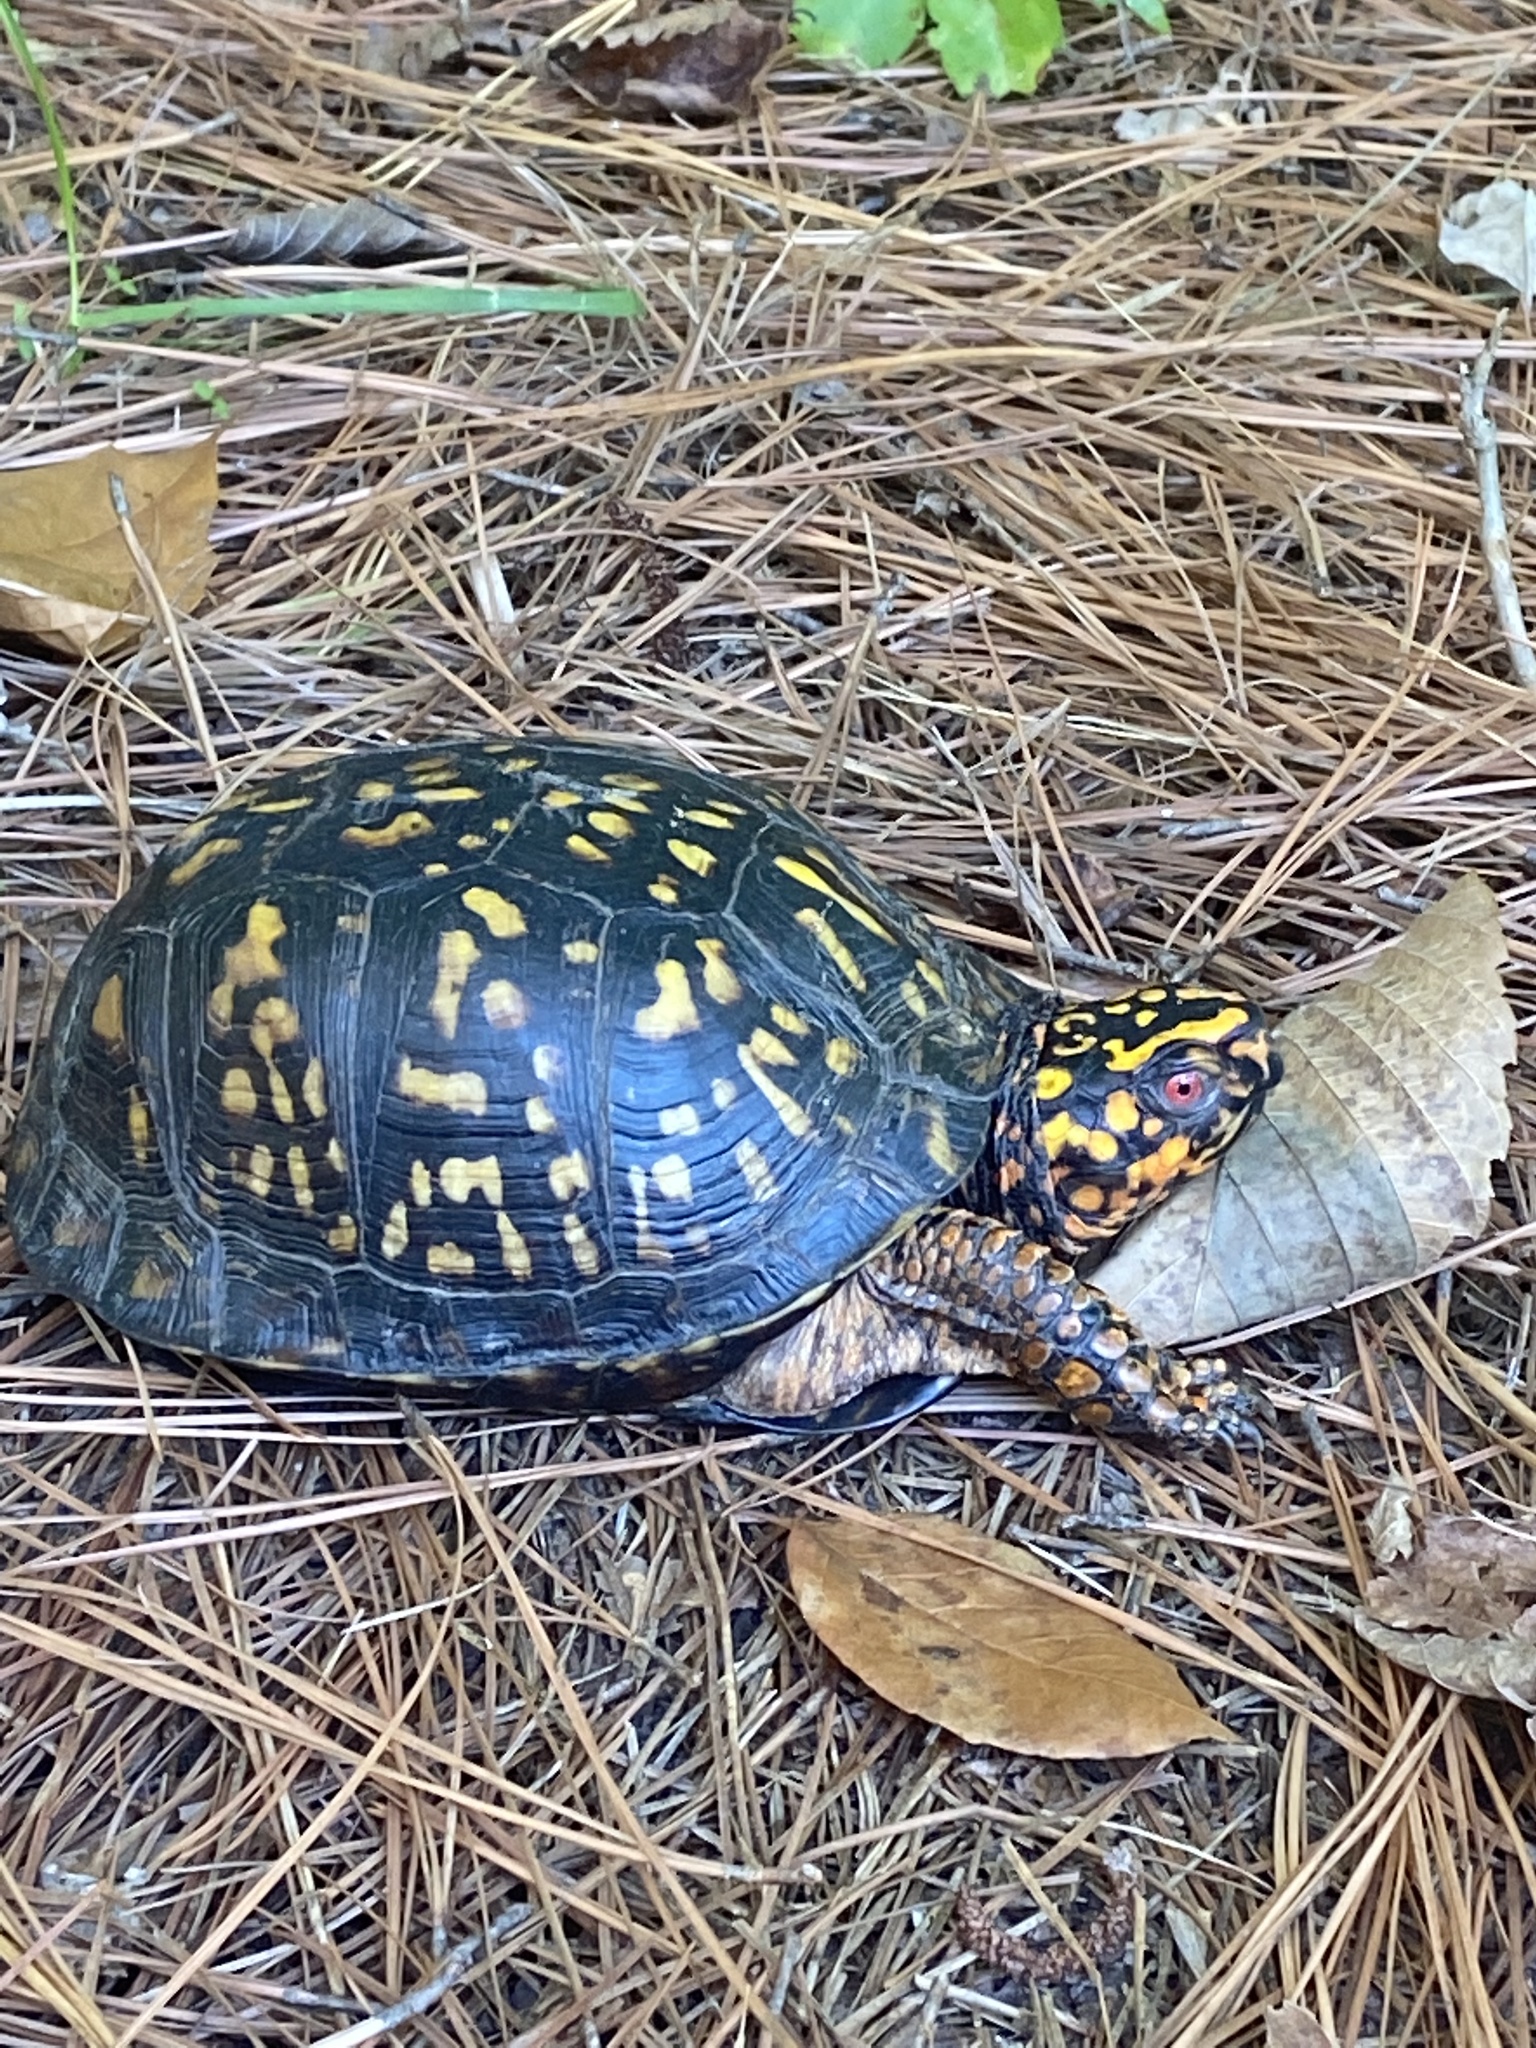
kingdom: Animalia
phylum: Chordata
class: Testudines
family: Emydidae
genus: Terrapene
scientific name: Terrapene carolina
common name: Common box turtle
